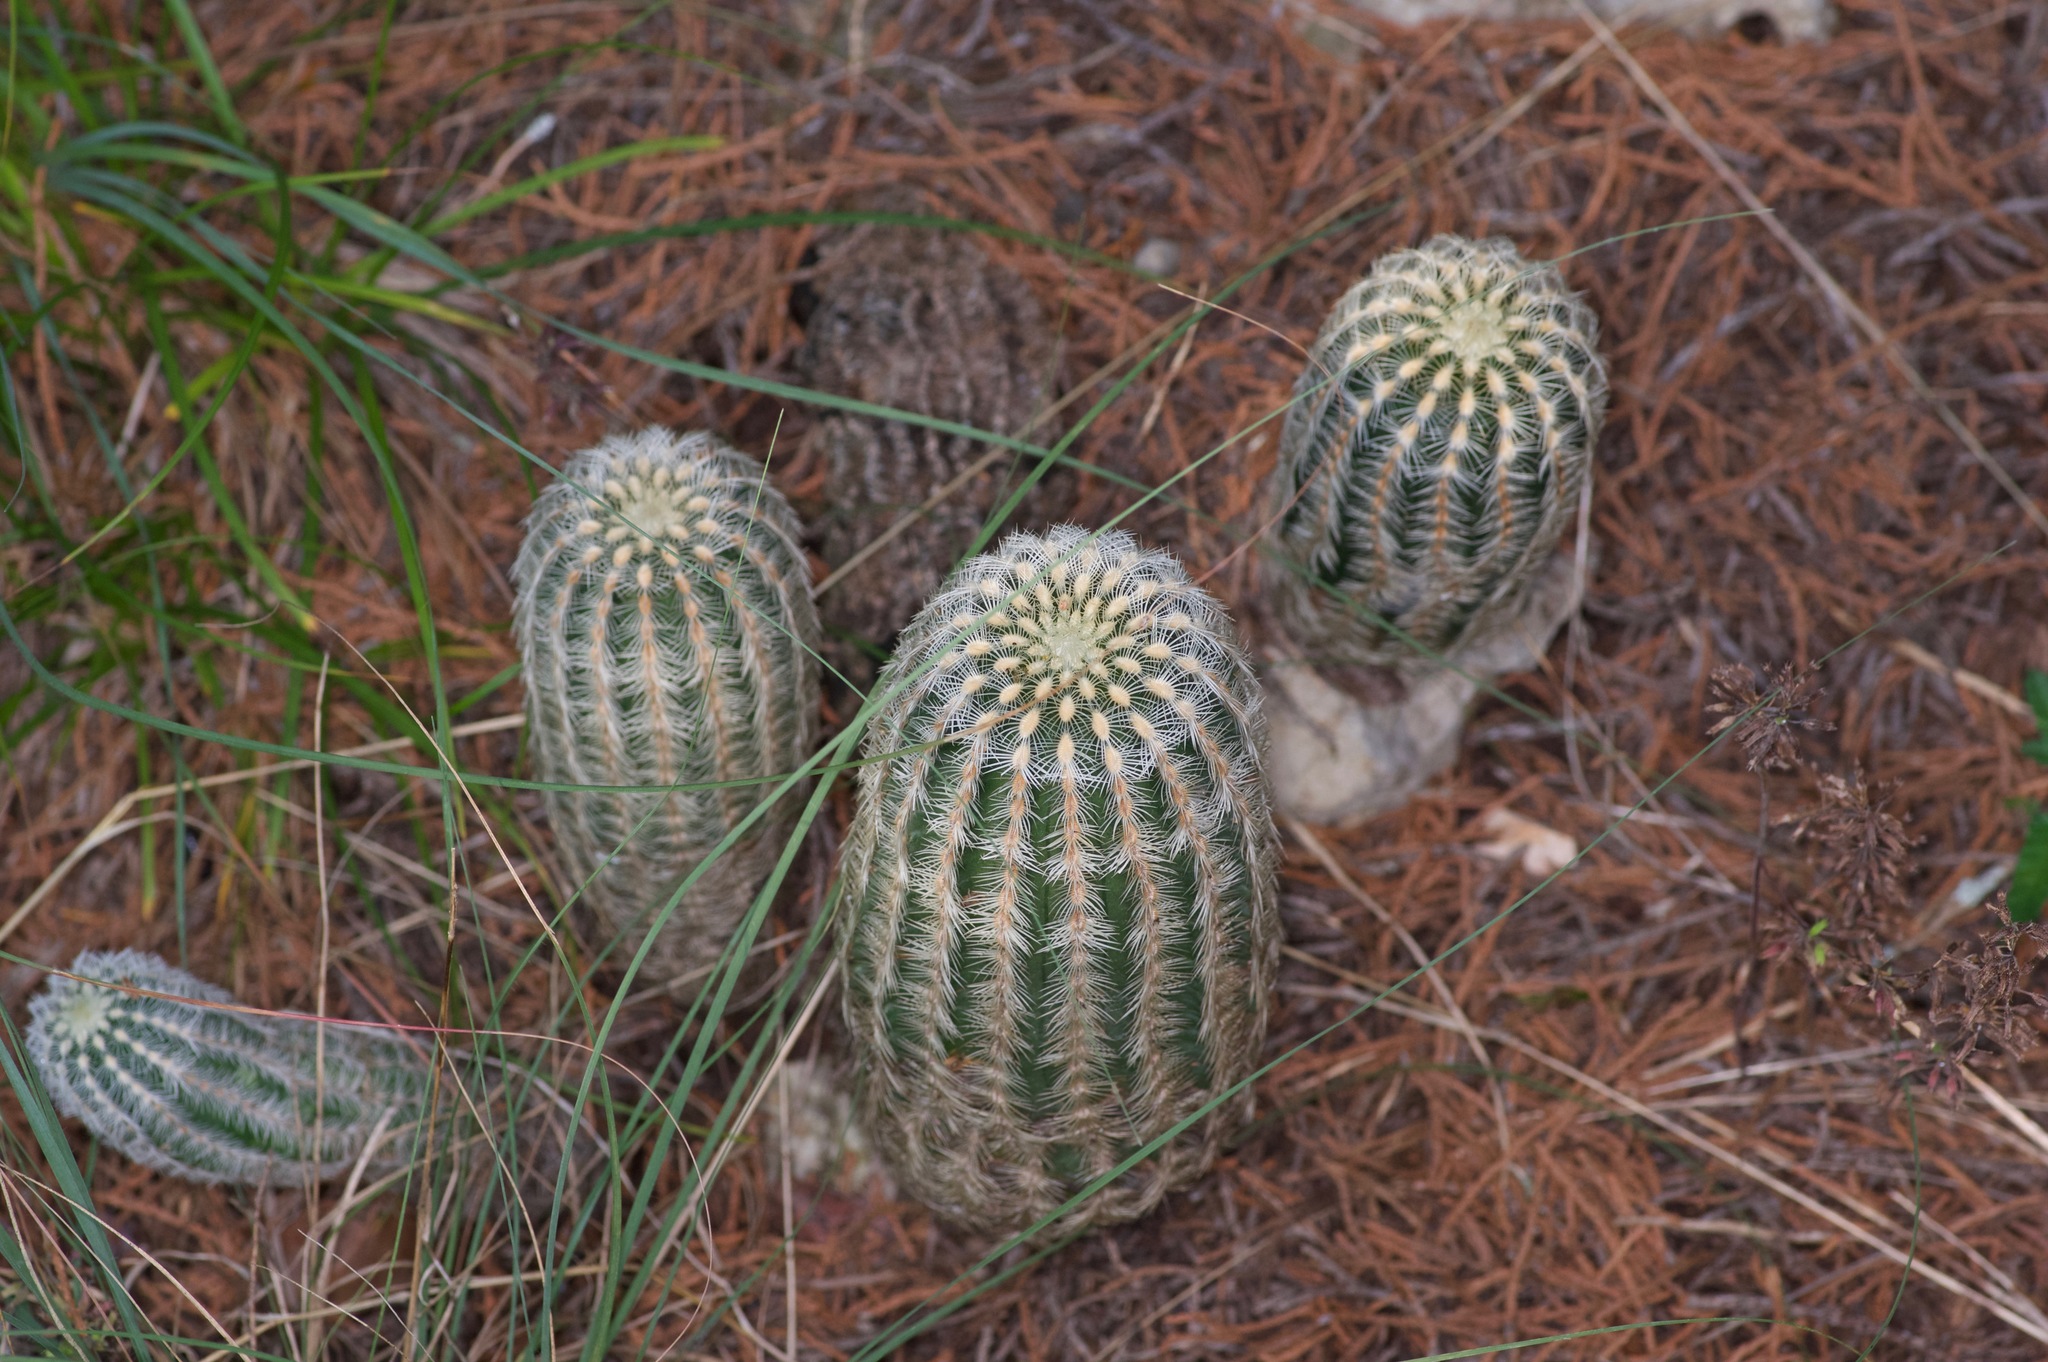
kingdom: Plantae
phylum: Tracheophyta
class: Magnoliopsida
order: Caryophyllales
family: Cactaceae
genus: Echinocereus
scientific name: Echinocereus reichenbachii
